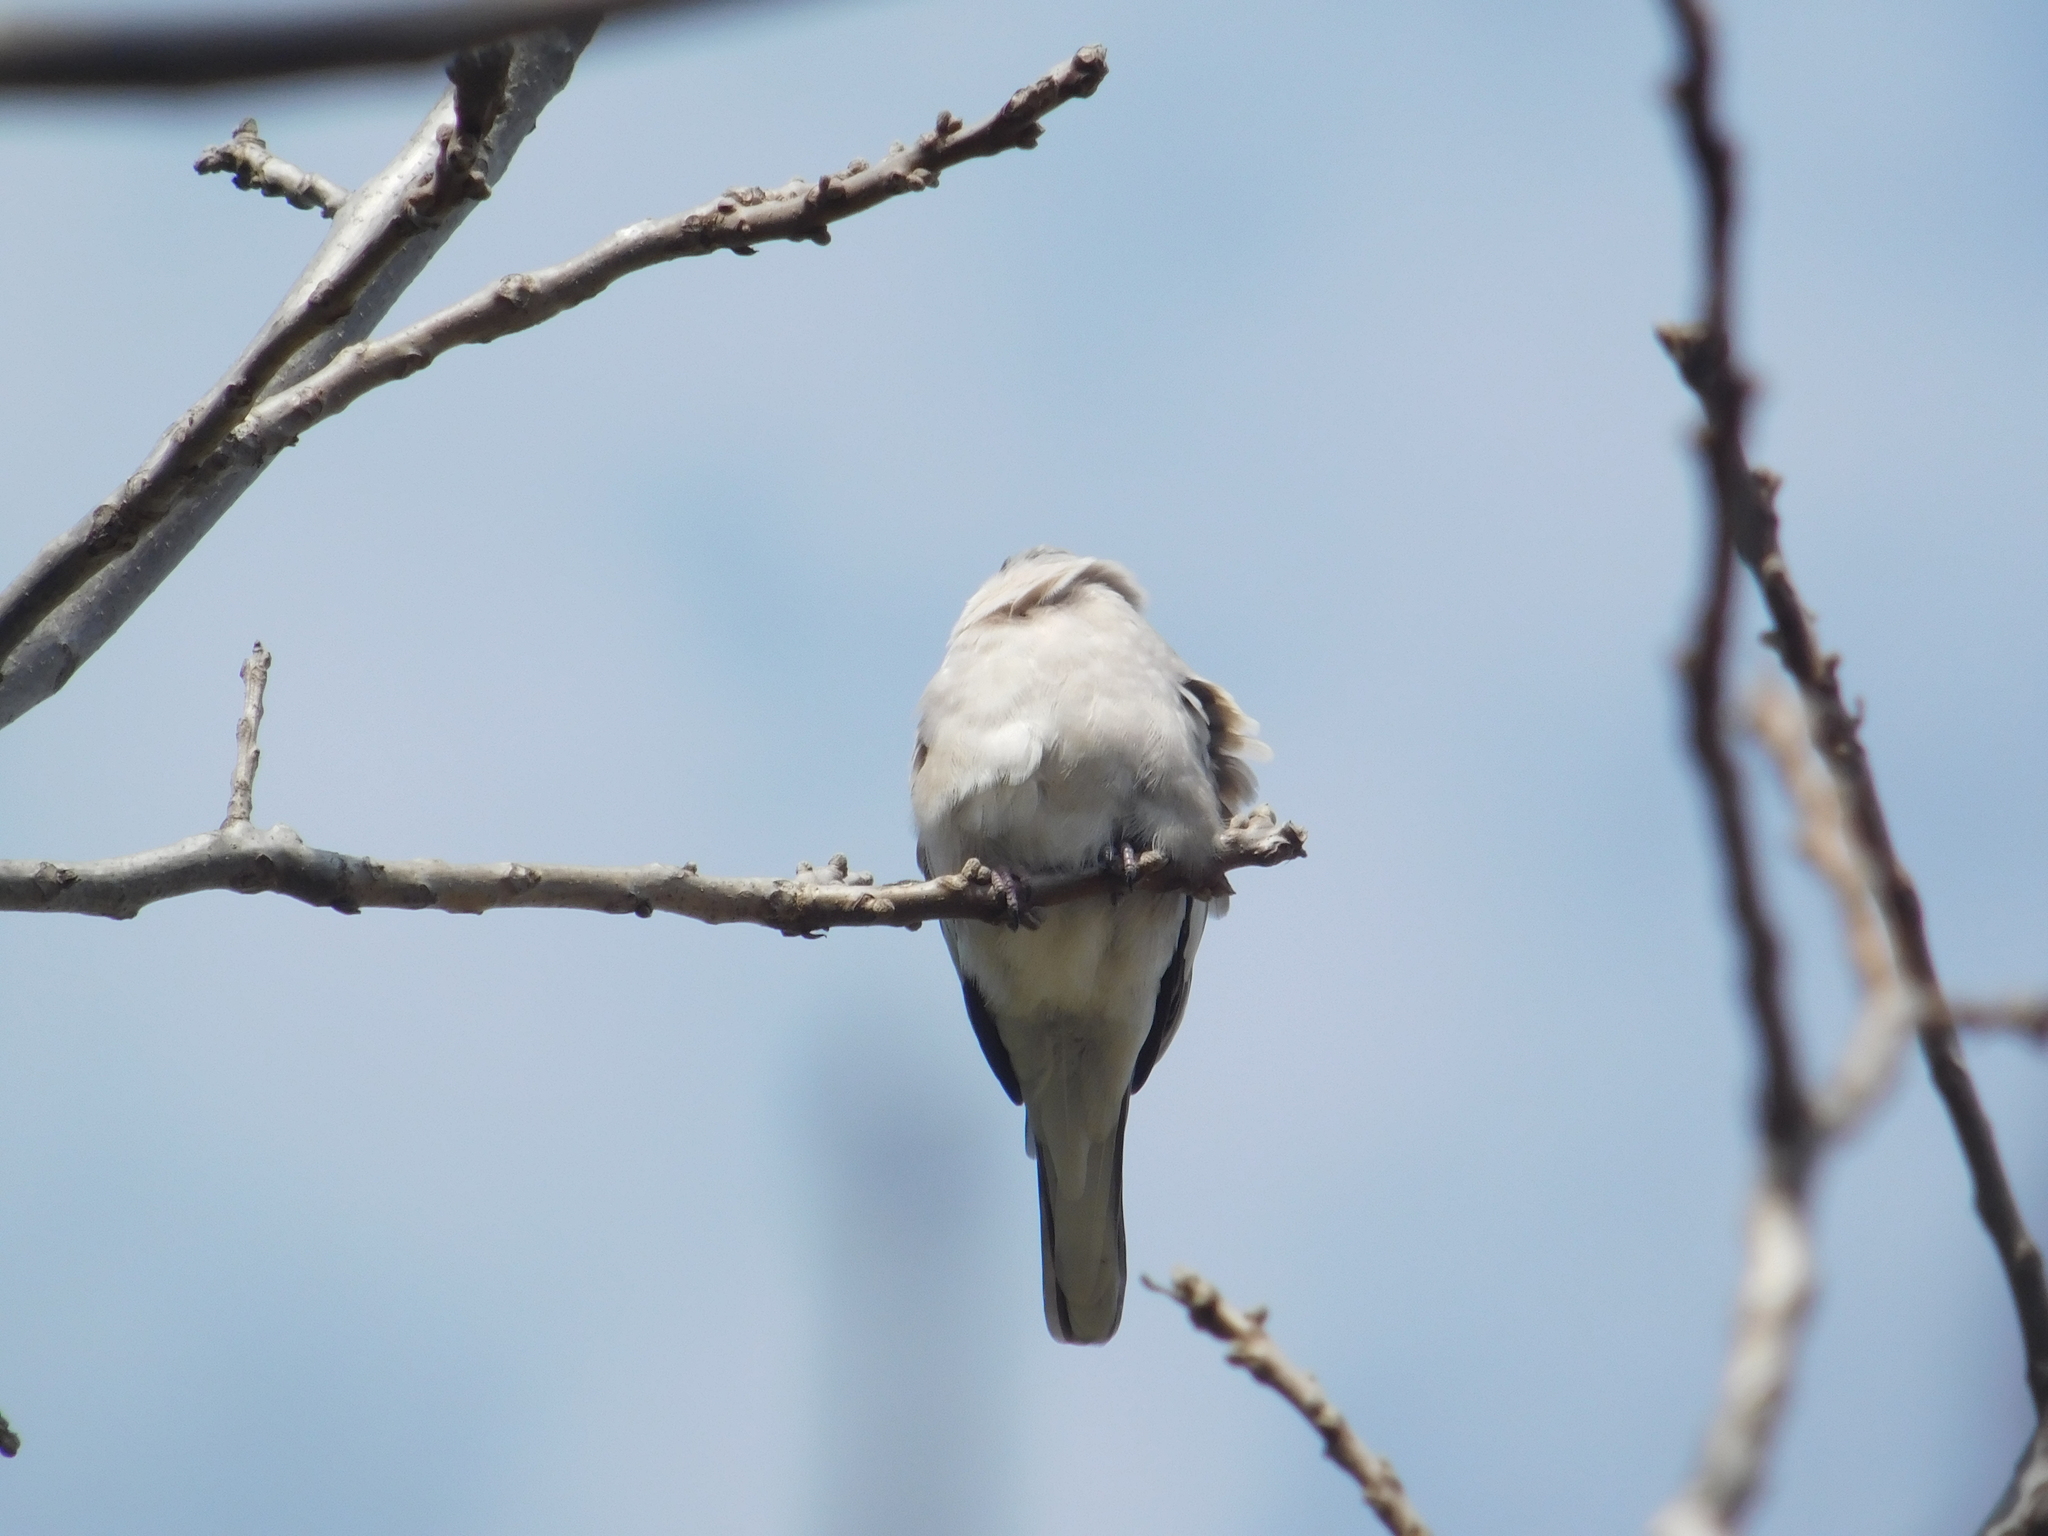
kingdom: Animalia
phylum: Chordata
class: Aves
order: Columbiformes
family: Columbidae
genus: Columbina
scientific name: Columbina picui
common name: Picui ground dove
